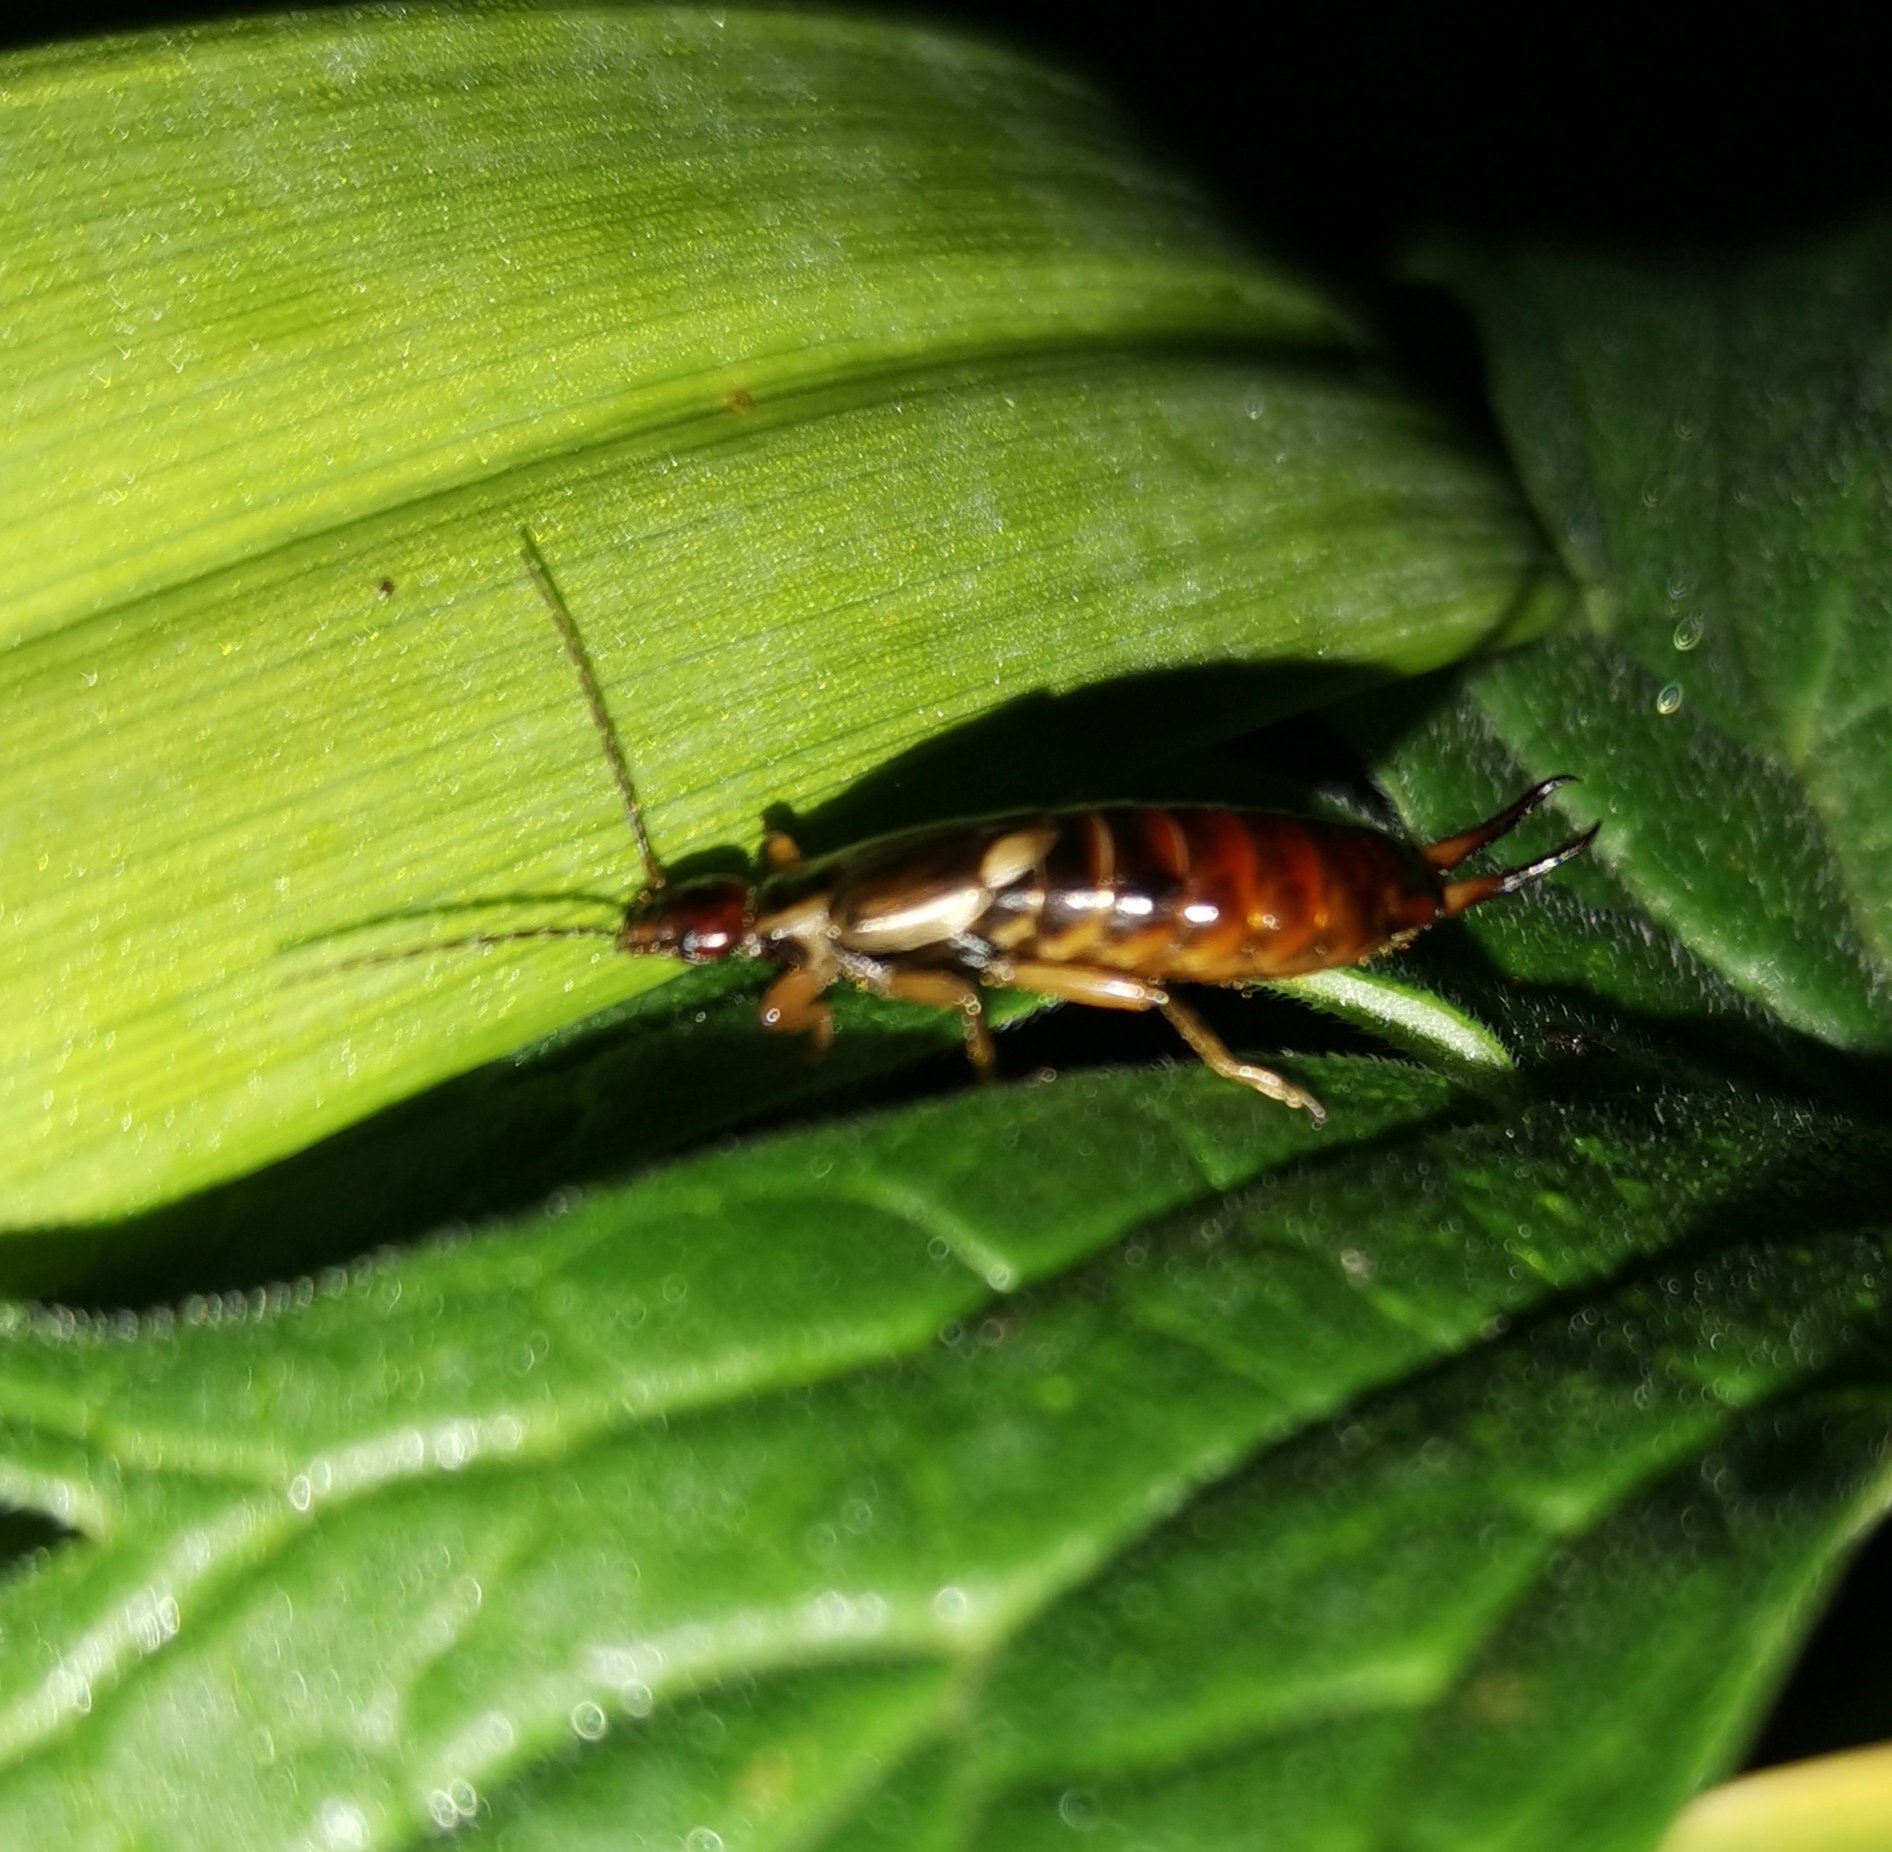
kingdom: Animalia
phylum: Arthropoda
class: Insecta
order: Dermaptera
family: Forficulidae
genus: Forficula
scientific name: Forficula
